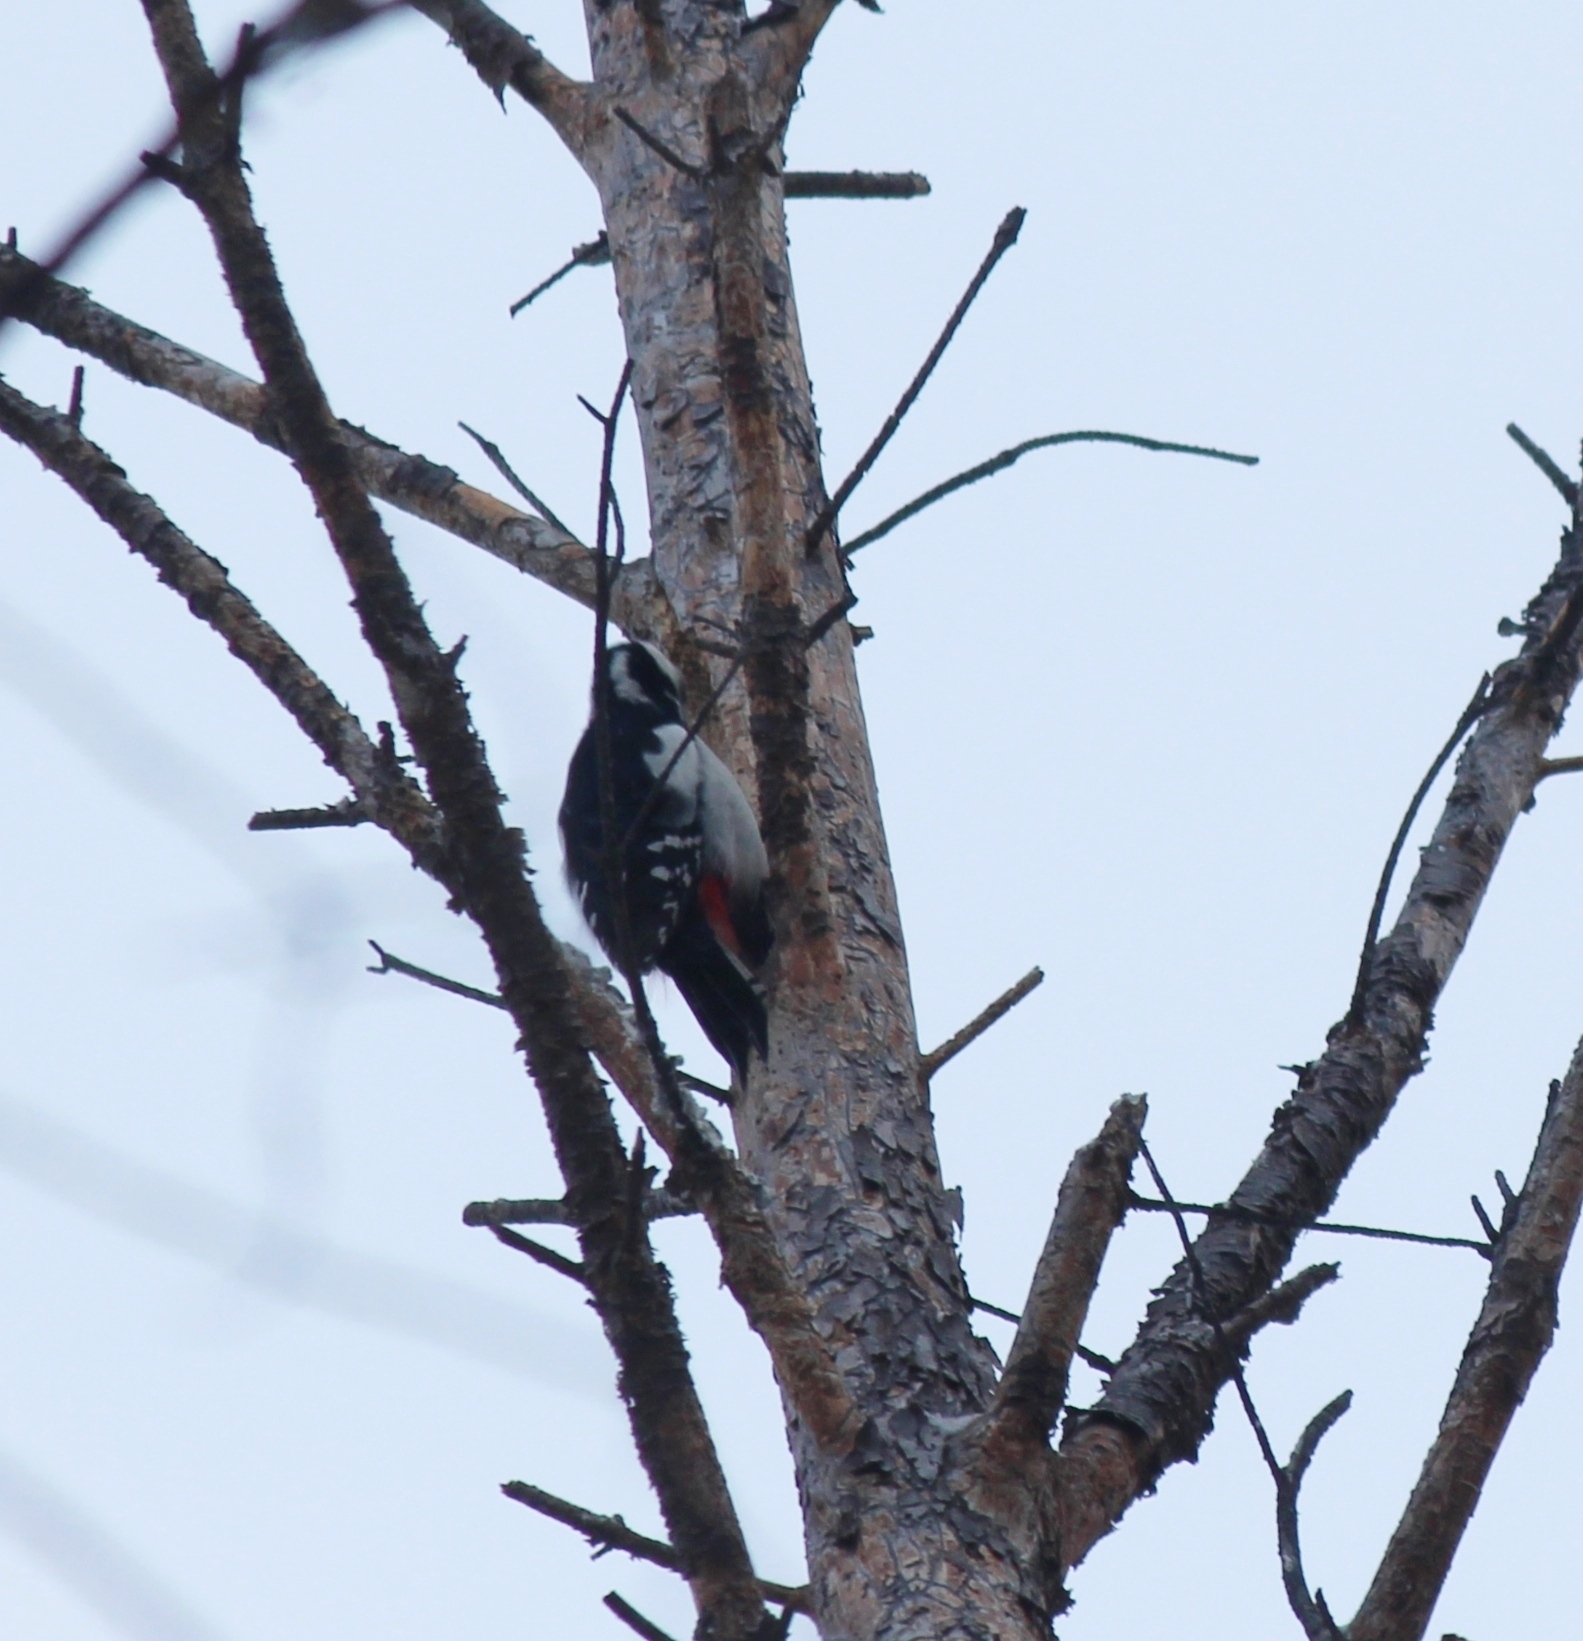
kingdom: Animalia
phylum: Chordata
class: Aves
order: Piciformes
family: Picidae
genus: Dendrocopos
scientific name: Dendrocopos major
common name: Great spotted woodpecker
